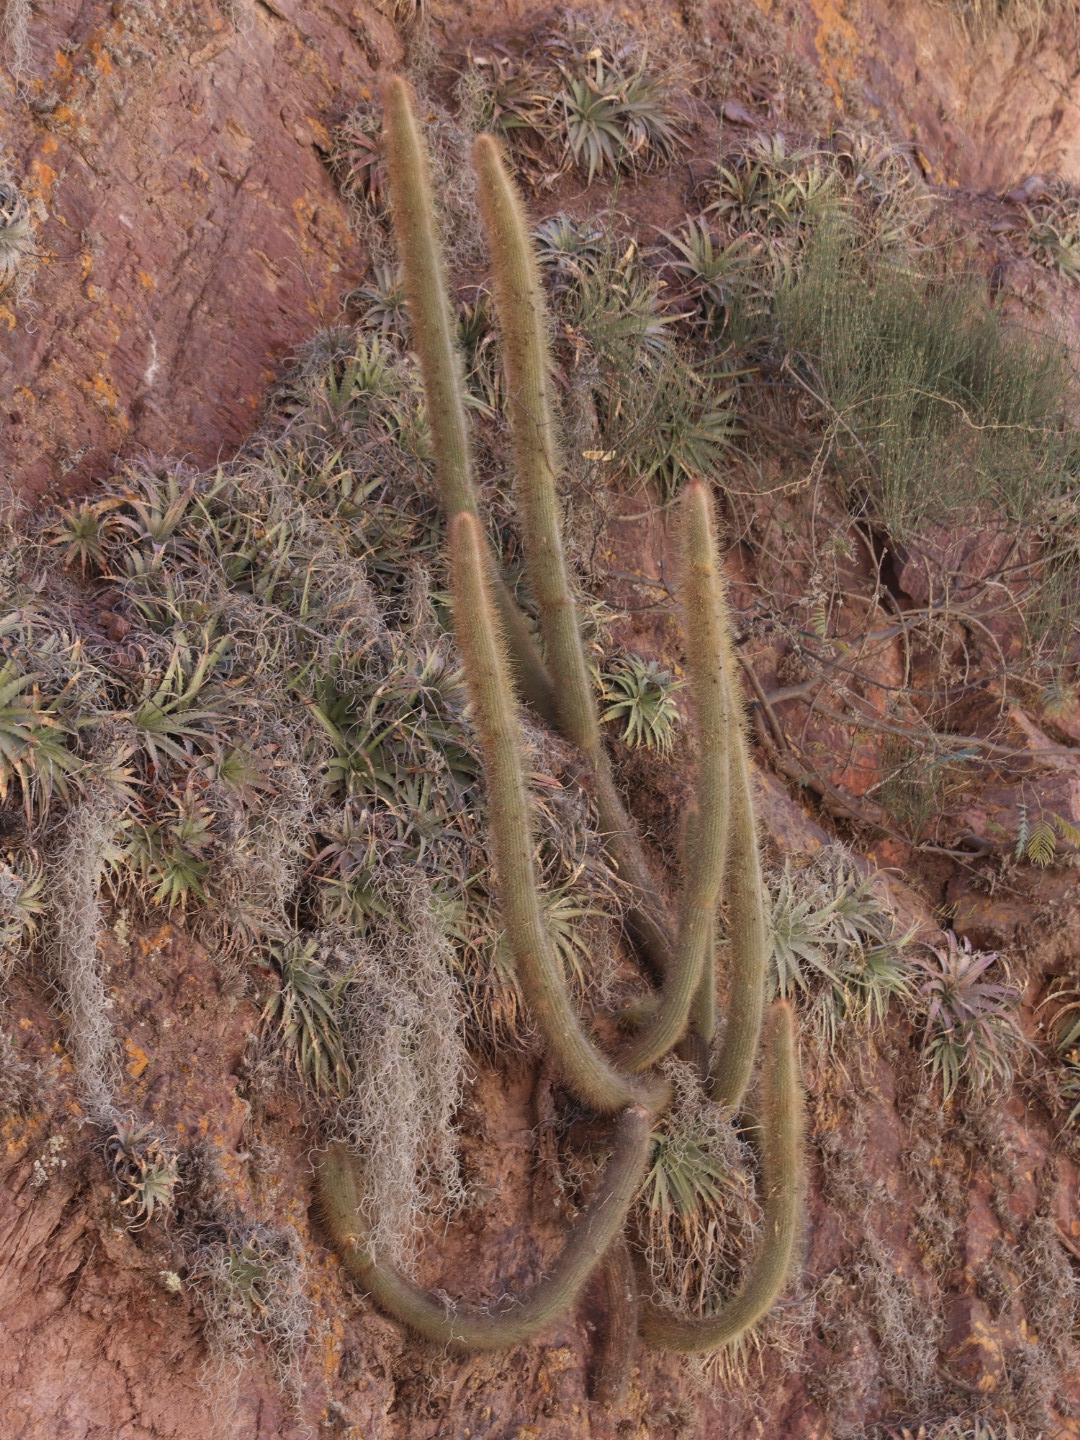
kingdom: Plantae
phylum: Tracheophyta
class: Magnoliopsida
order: Caryophyllales
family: Cactaceae
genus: Cleistocactus
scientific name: Cleistocactus hyalacanthus
